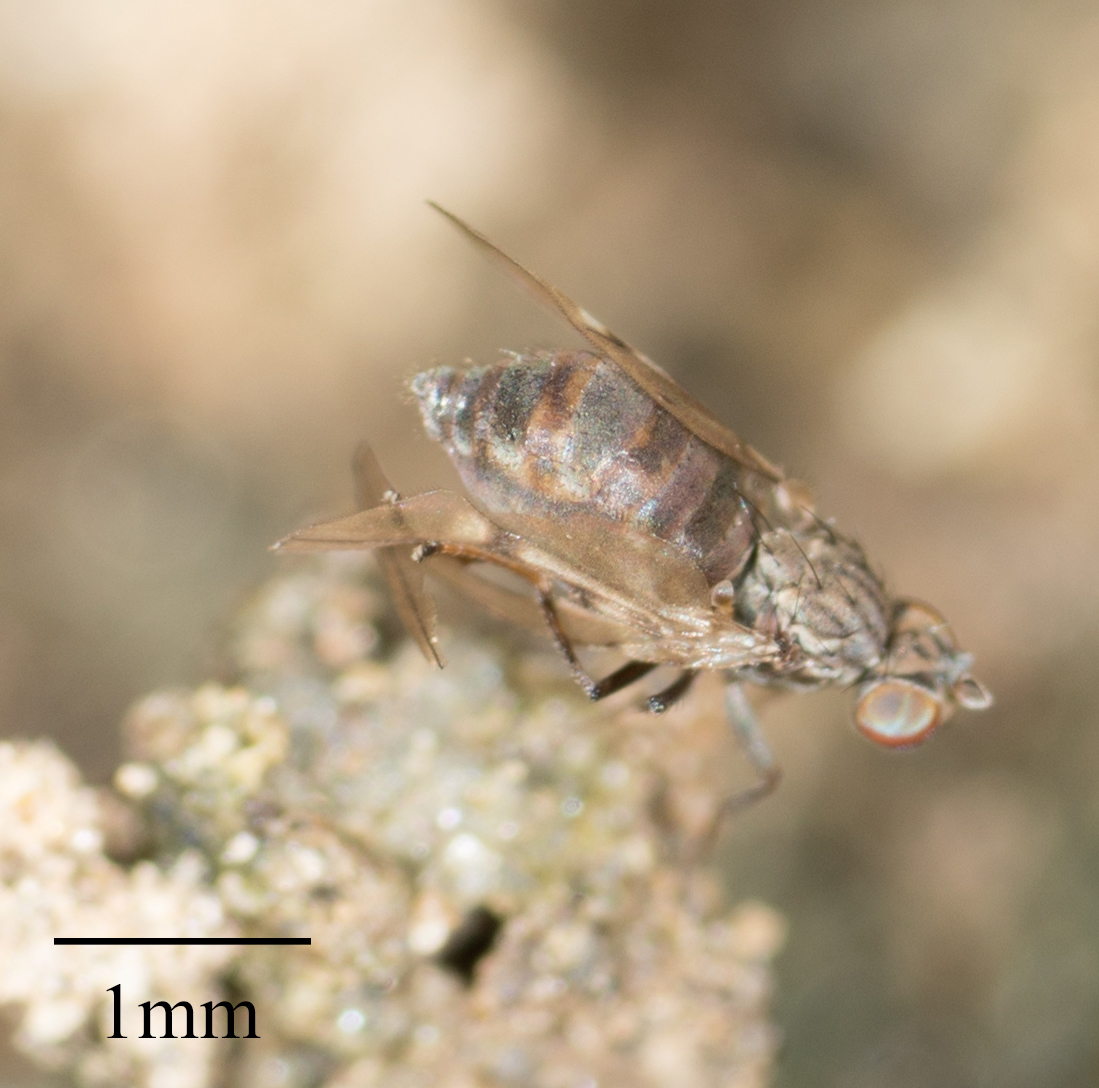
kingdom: Animalia
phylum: Arthropoda
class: Insecta
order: Diptera
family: Ephydridae
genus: Philygria
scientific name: Philygria debilis
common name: Brine fly
